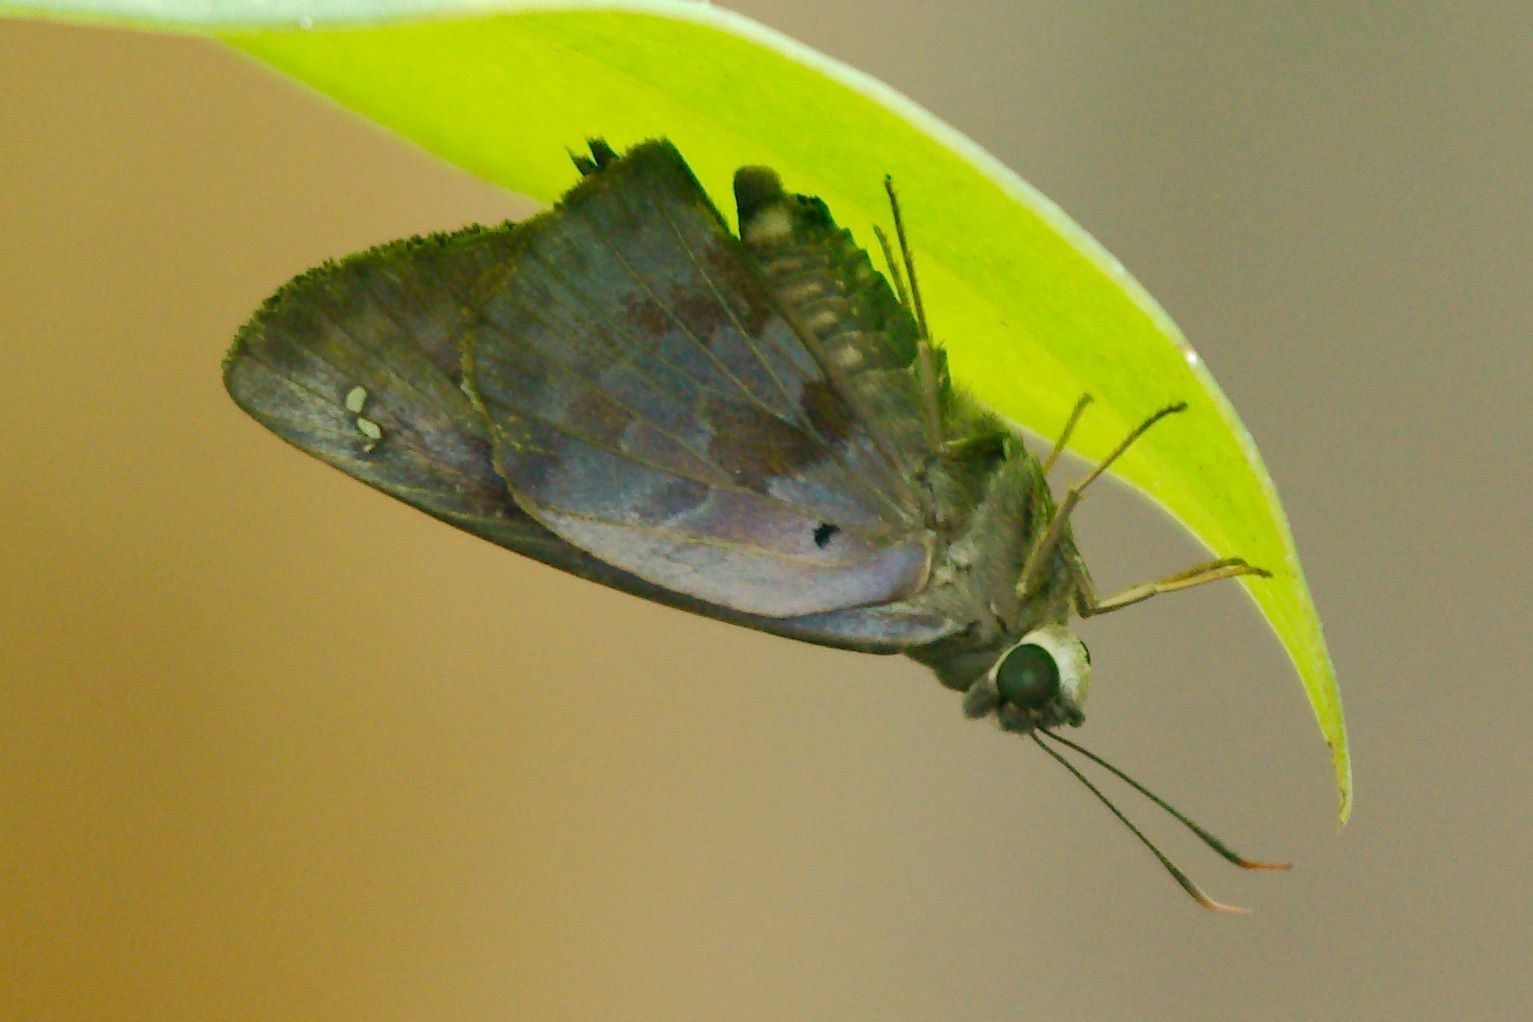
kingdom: Animalia
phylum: Arthropoda
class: Insecta
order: Lepidoptera
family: Hesperiidae
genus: Polygonus
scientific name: Polygonus leo
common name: Hammoch skipper
